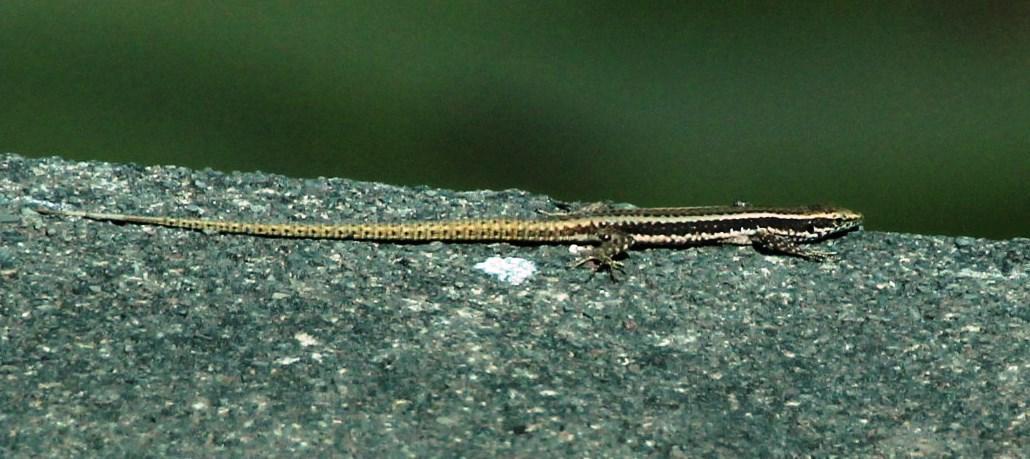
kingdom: Animalia
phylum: Chordata
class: Squamata
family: Lacertidae
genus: Teira
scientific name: Teira dugesii
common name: Madeira lizard
